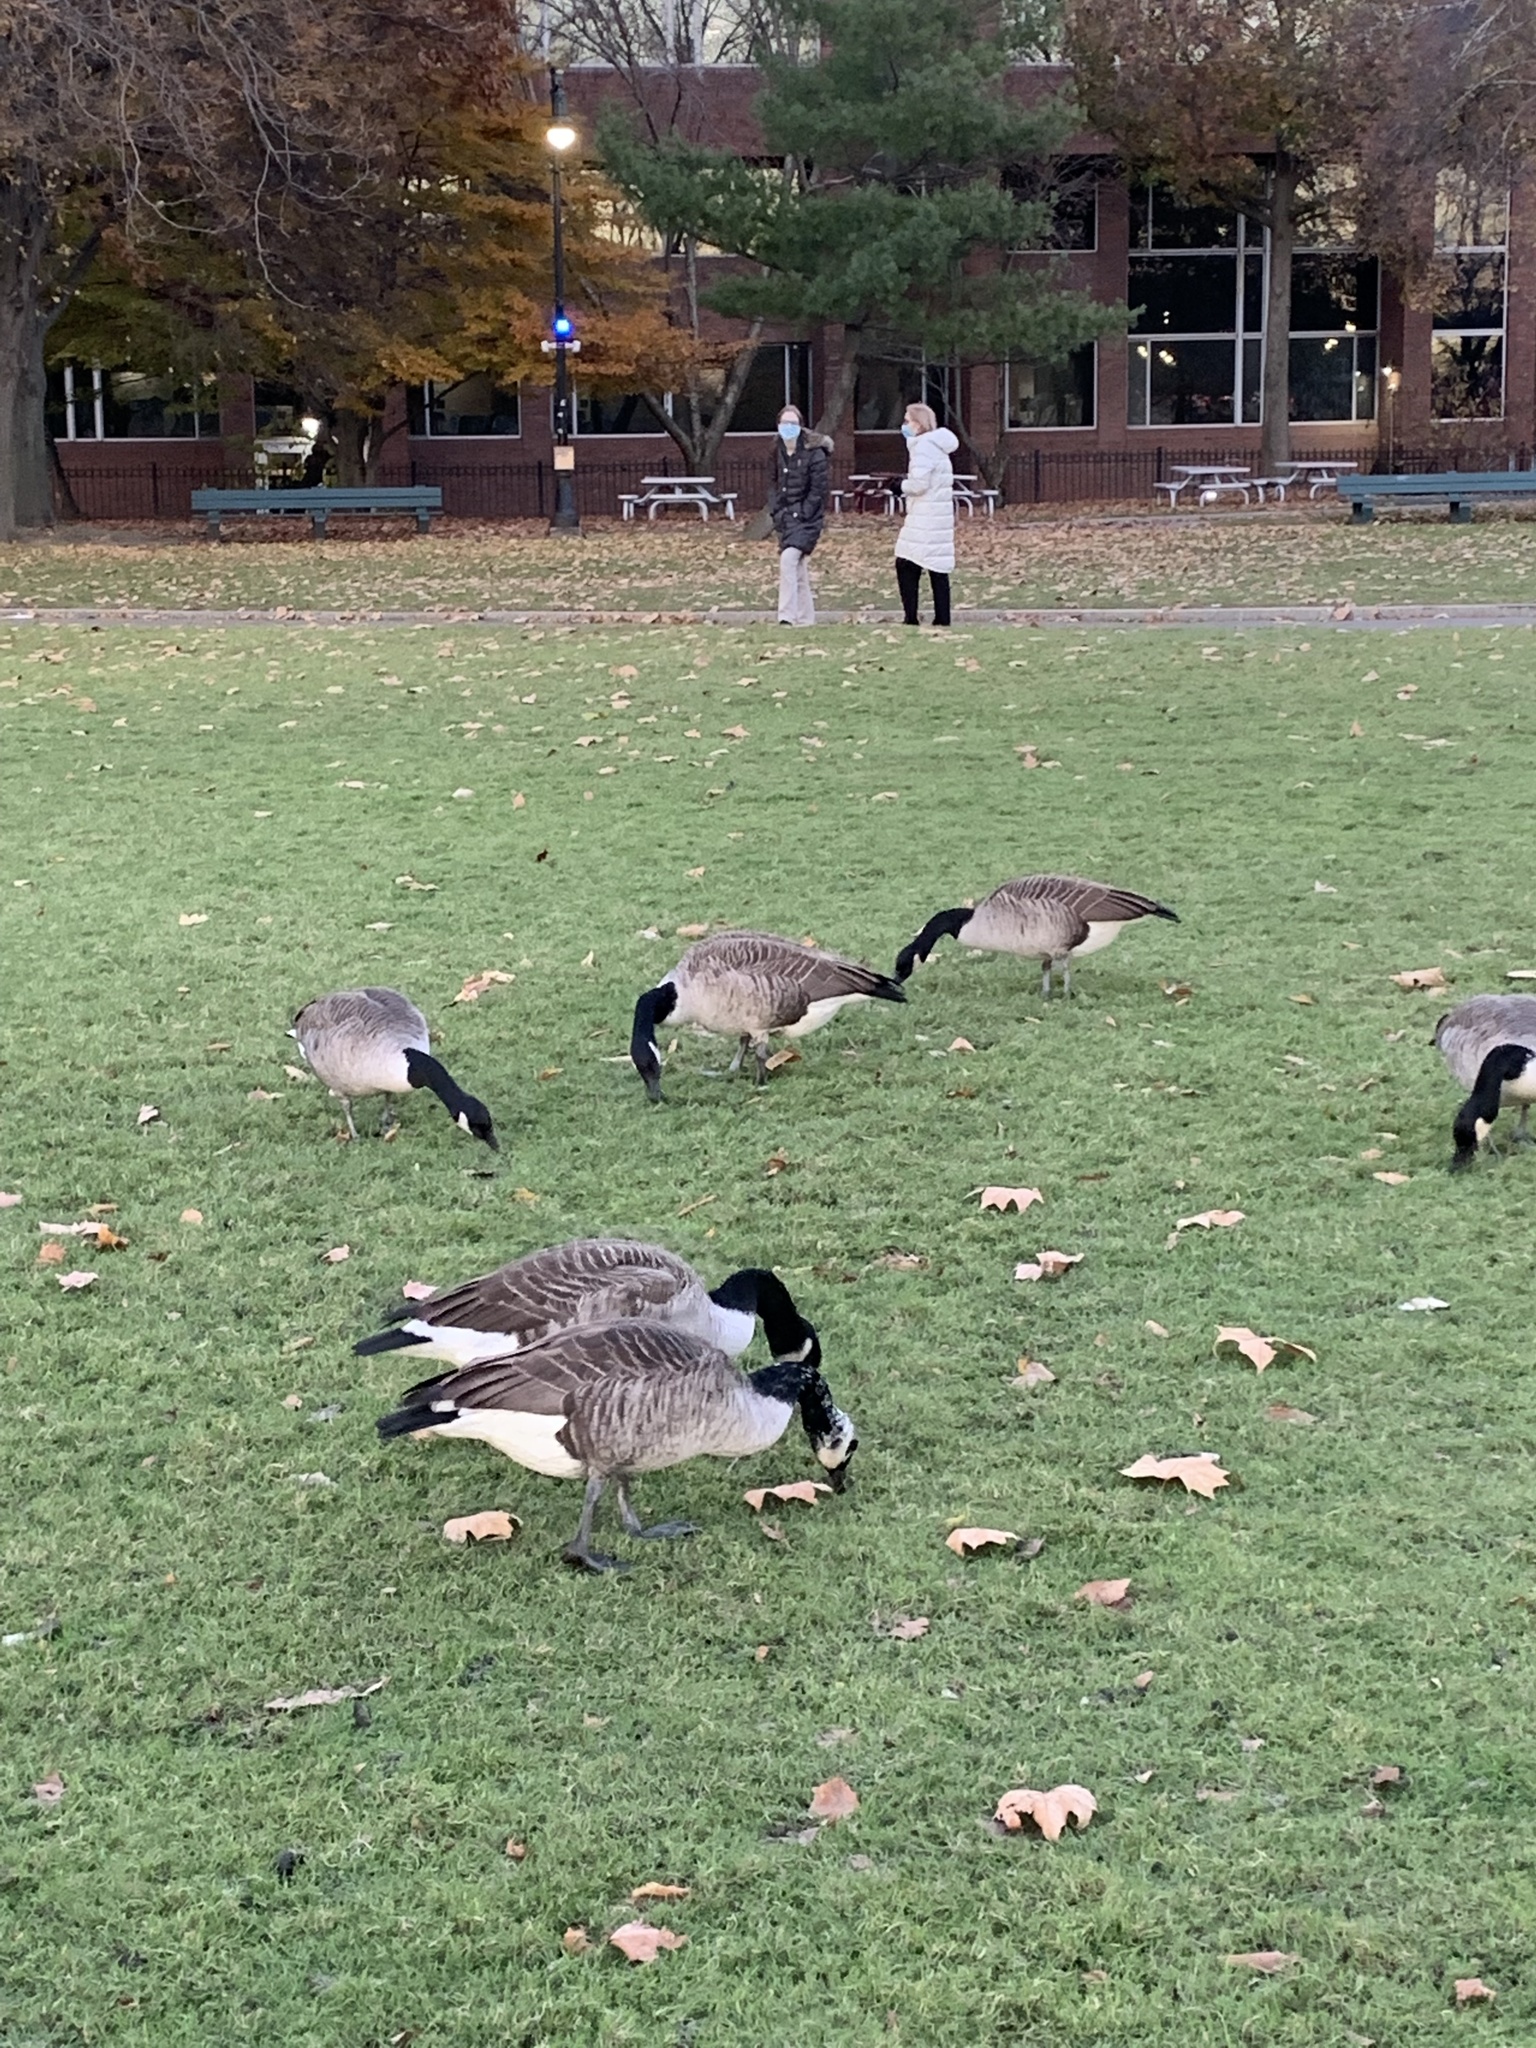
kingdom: Animalia
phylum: Chordata
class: Aves
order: Anseriformes
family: Anatidae
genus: Branta
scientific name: Branta canadensis
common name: Canada goose
